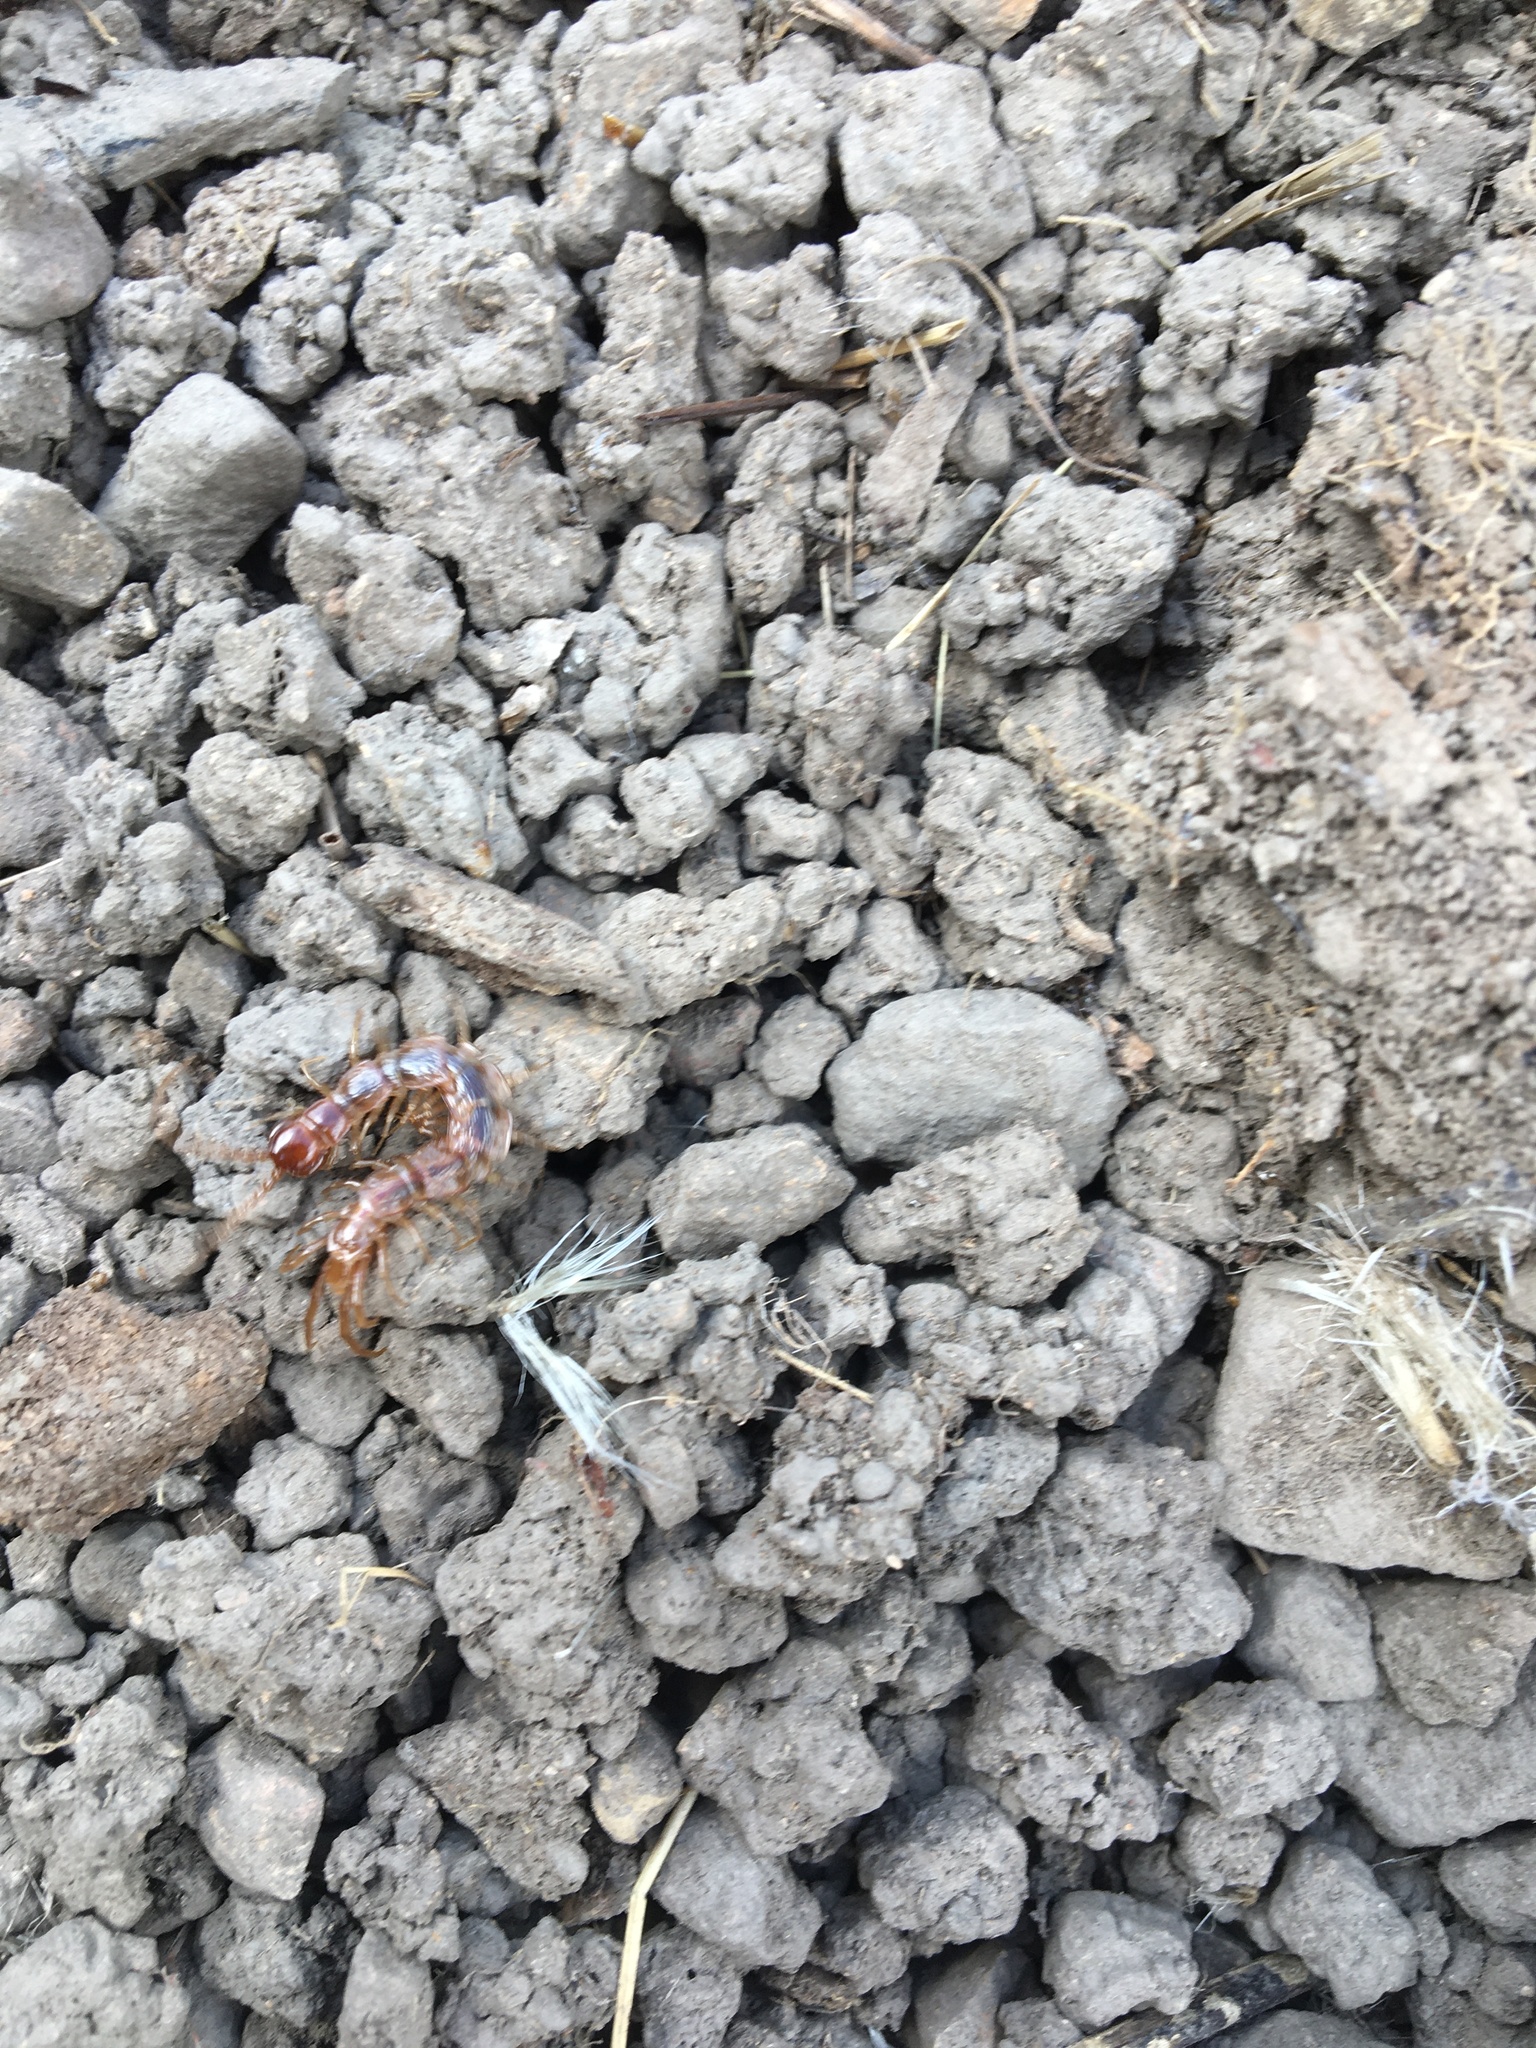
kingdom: Animalia
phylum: Arthropoda
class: Chilopoda
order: Lithobiomorpha
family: Lithobiidae
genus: Gosibius
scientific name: Gosibius intermedius
